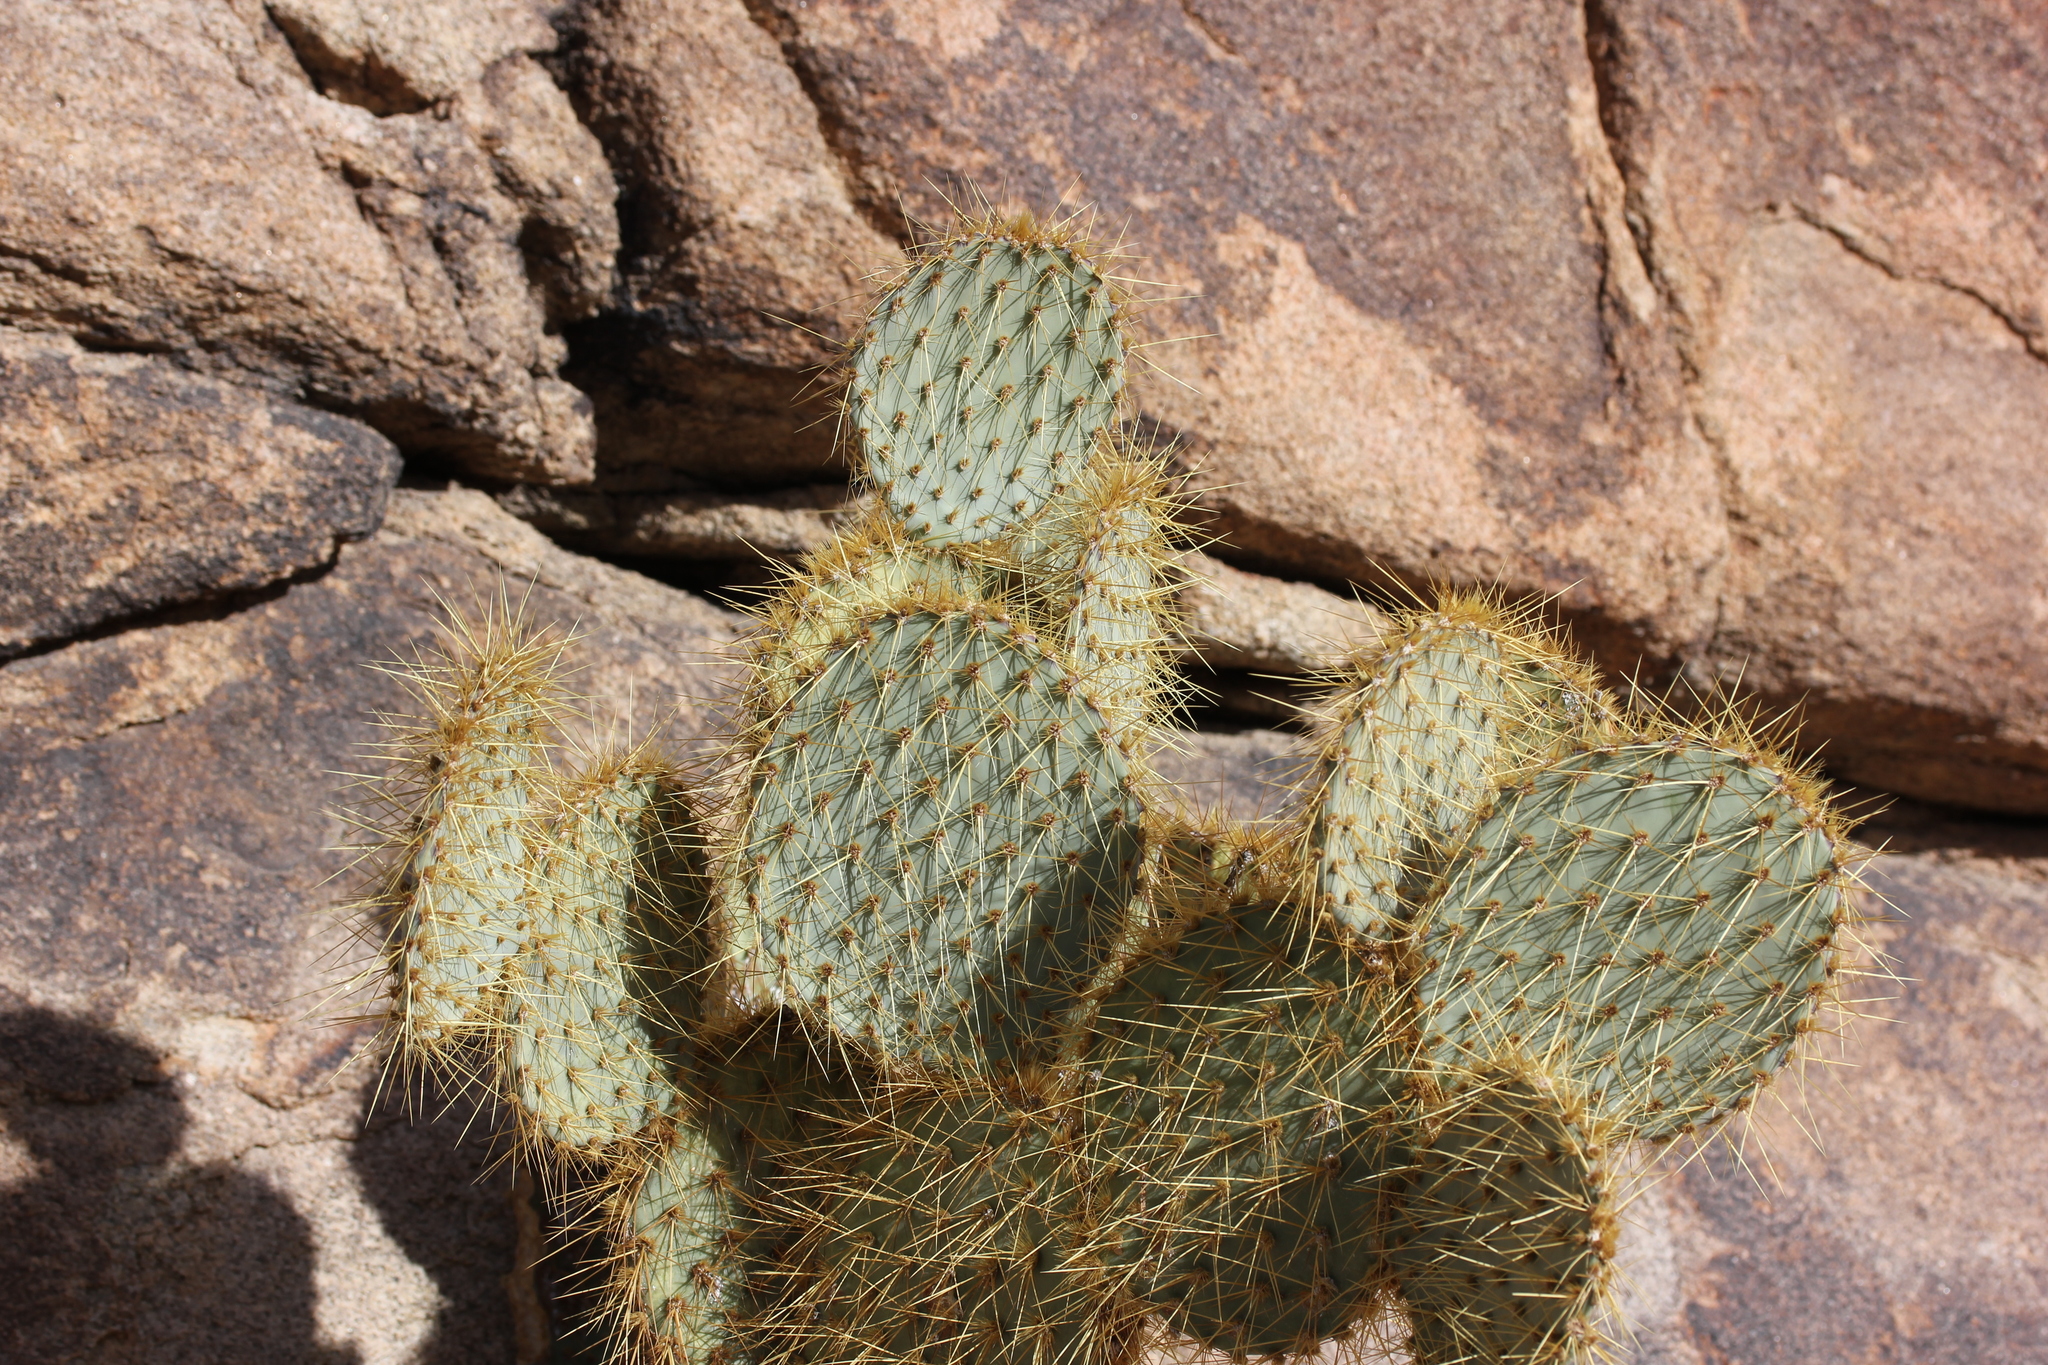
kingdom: Plantae
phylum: Tracheophyta
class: Magnoliopsida
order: Caryophyllales
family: Cactaceae
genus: Opuntia
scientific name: Opuntia chlorotica
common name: Dollar-joint prickly-pear
